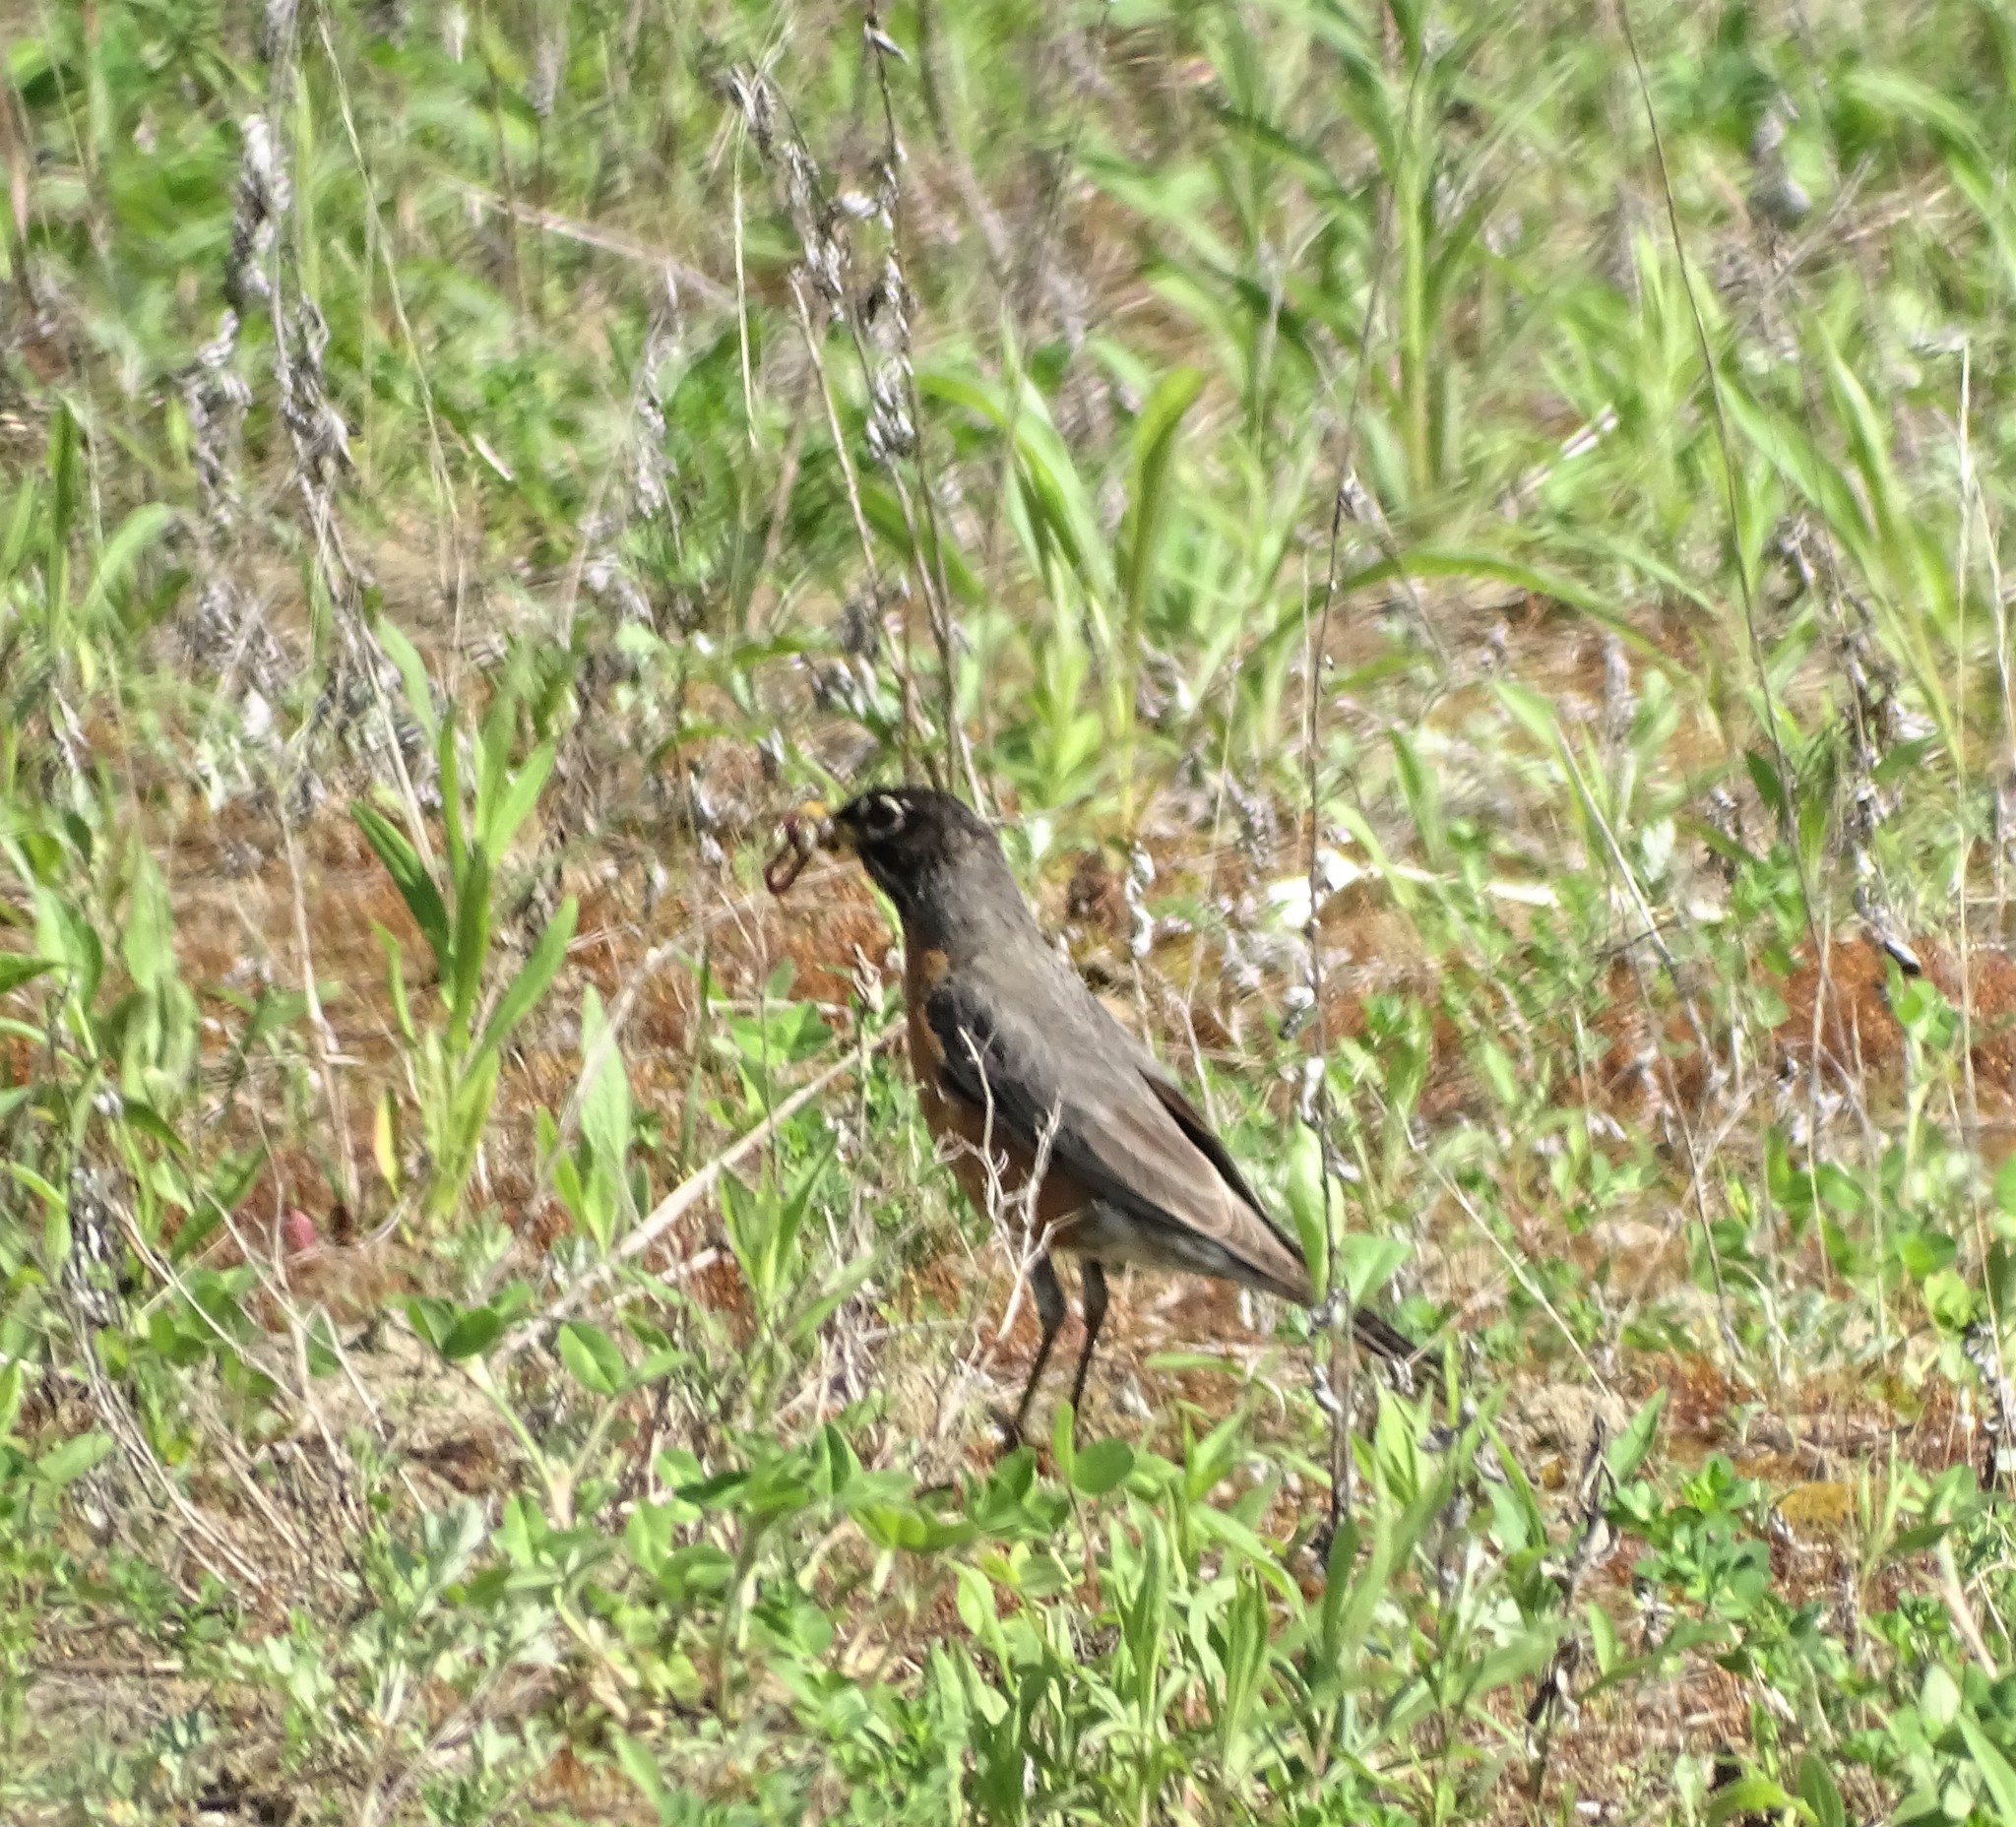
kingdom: Animalia
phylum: Chordata
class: Aves
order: Passeriformes
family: Turdidae
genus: Turdus
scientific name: Turdus migratorius
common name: American robin
